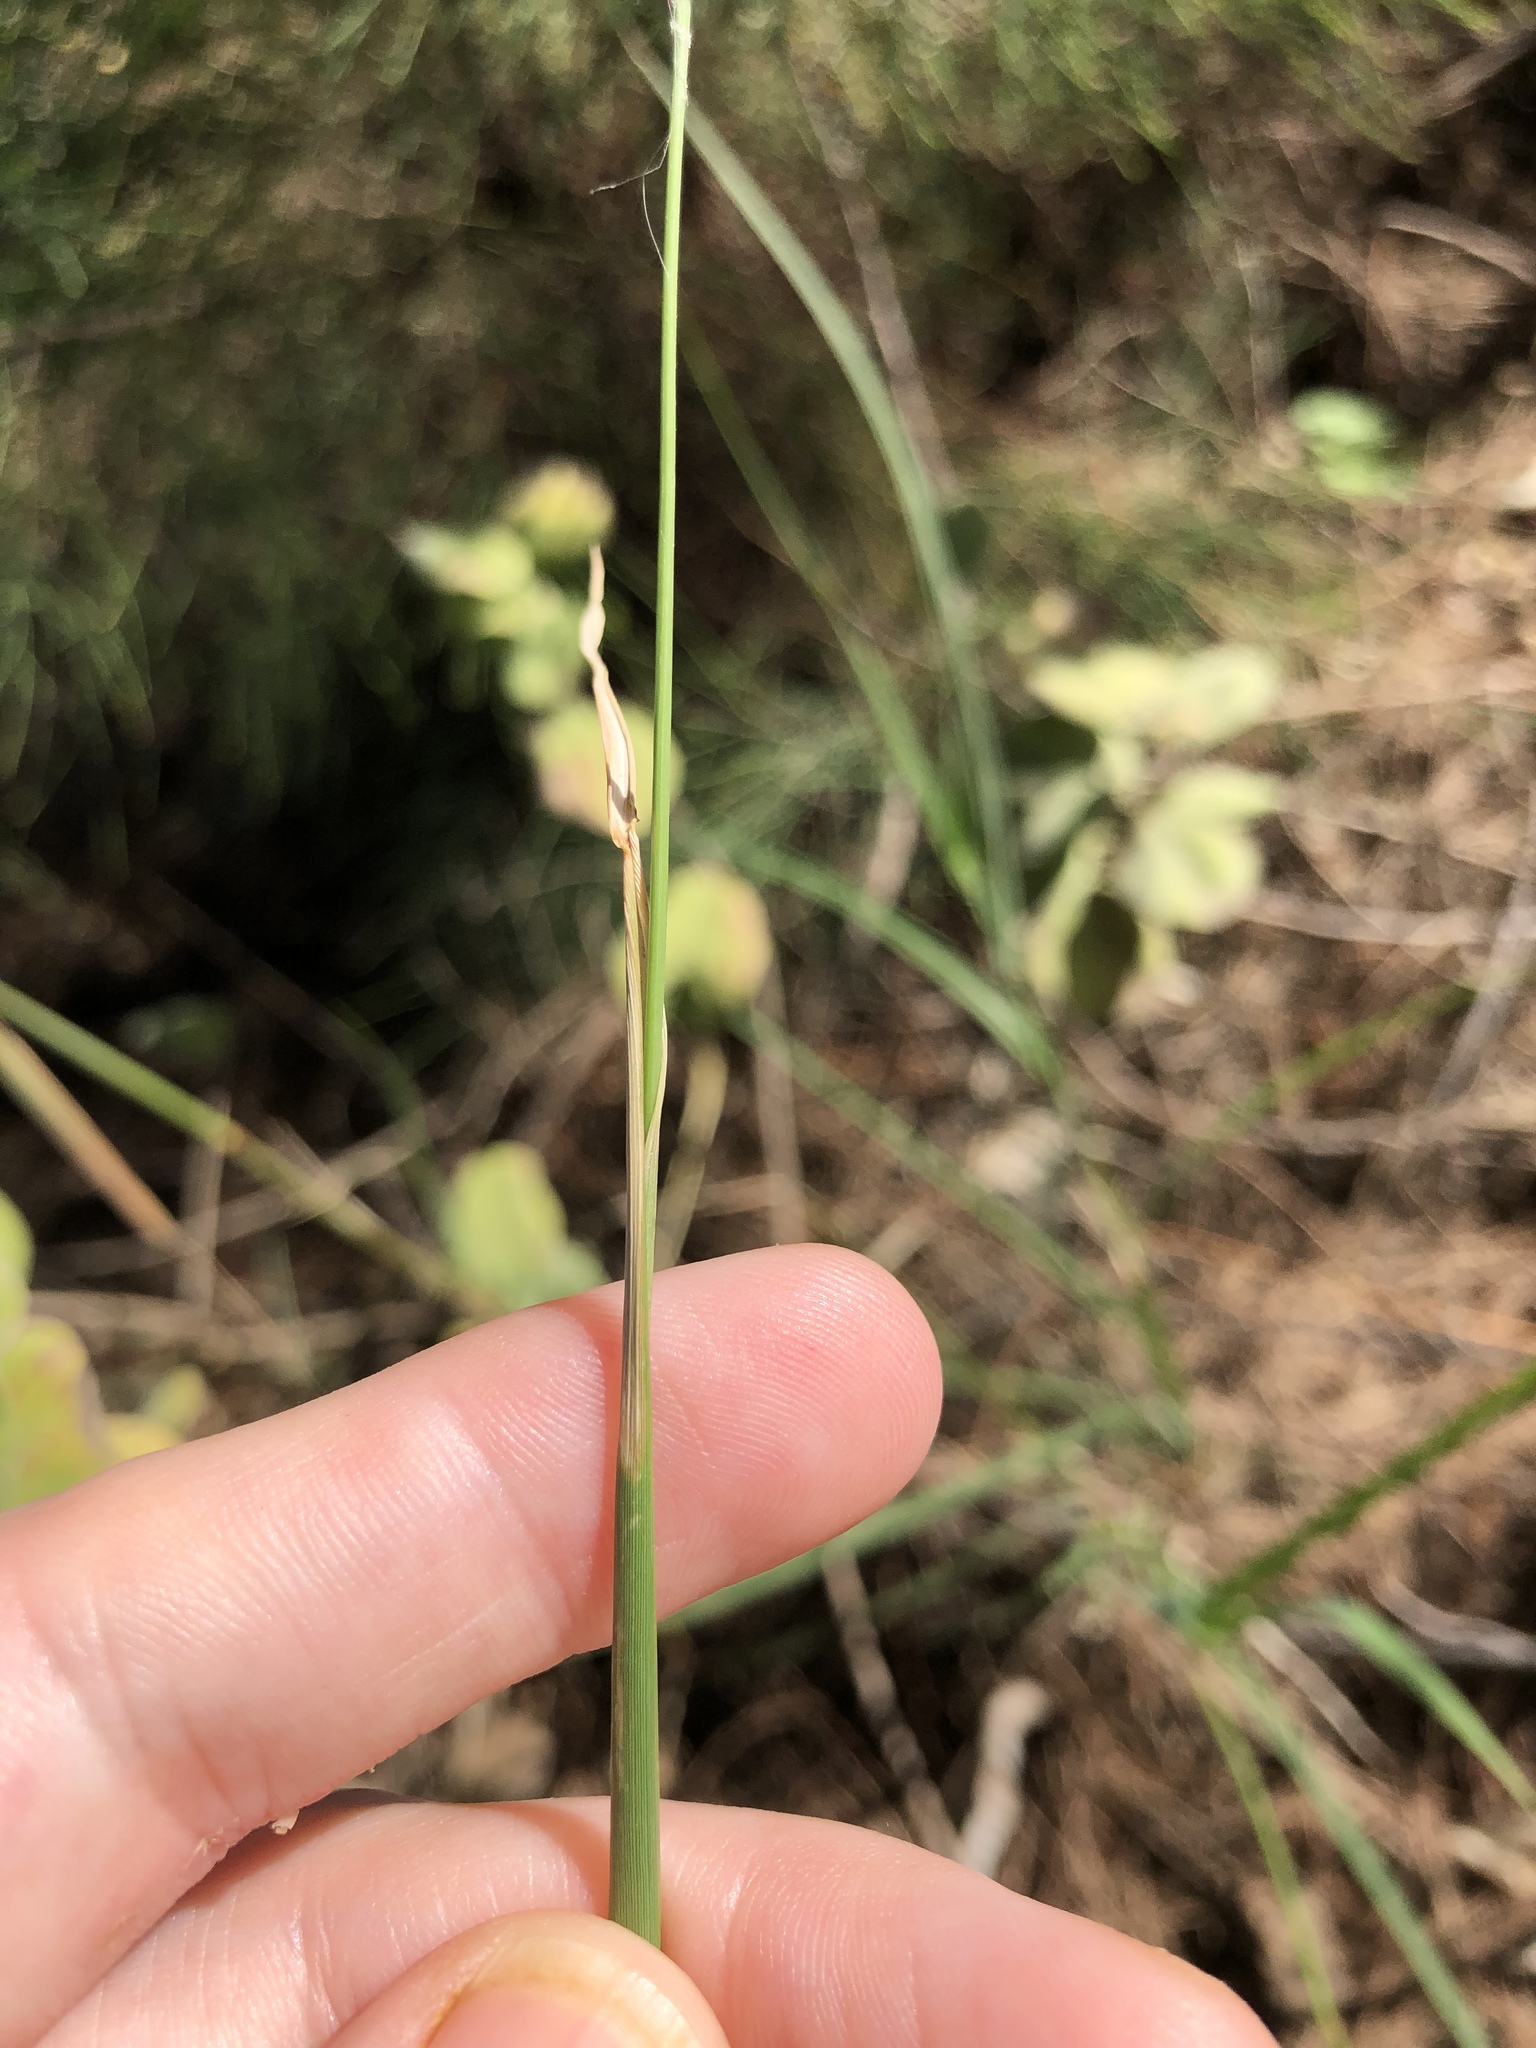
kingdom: Plantae
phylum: Tracheophyta
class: Liliopsida
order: Poales
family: Poaceae
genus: Chloris
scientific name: Chloris barbata
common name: Swollen fingergrass
